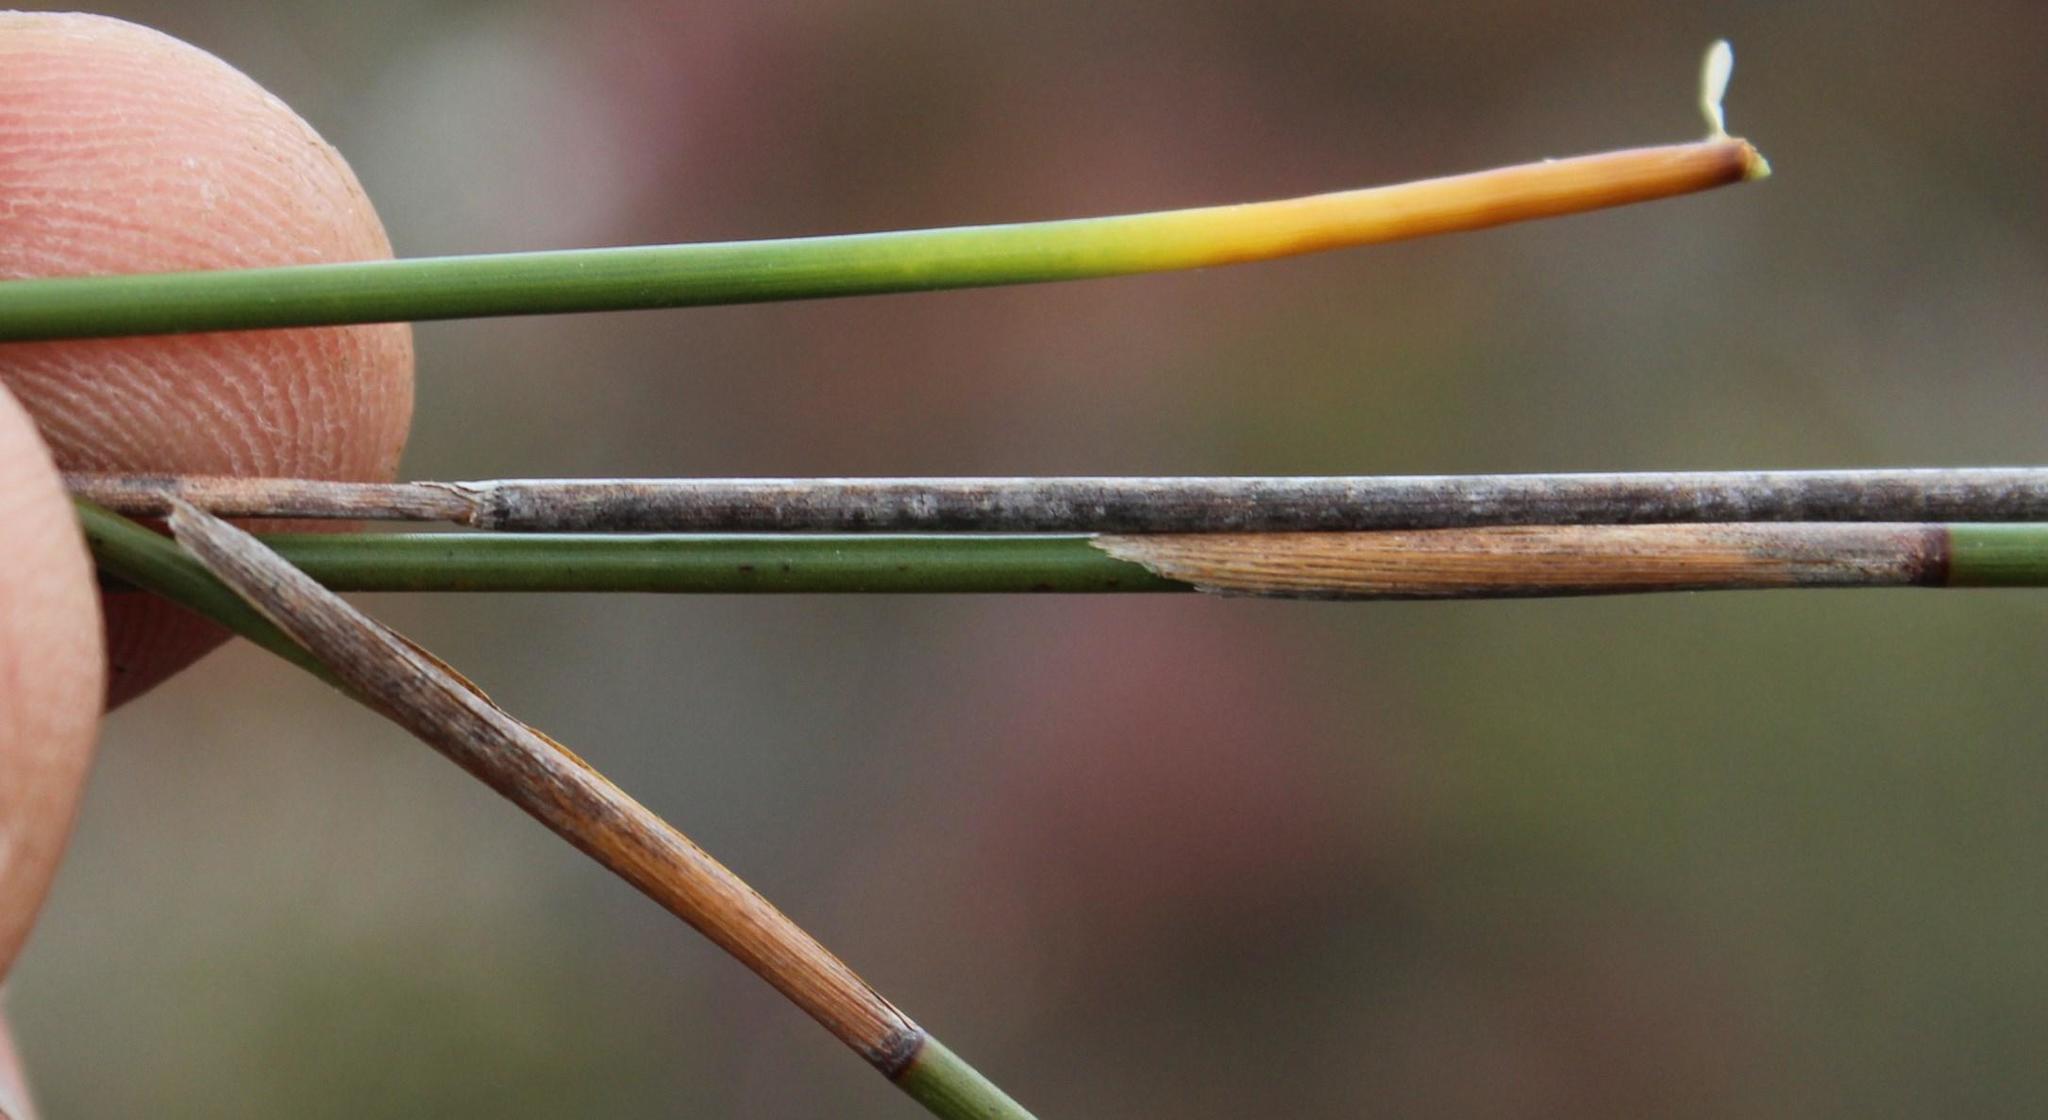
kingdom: Plantae
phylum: Tracheophyta
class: Liliopsida
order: Poales
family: Restionaceae
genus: Hypodiscus
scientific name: Hypodiscus argenteus
